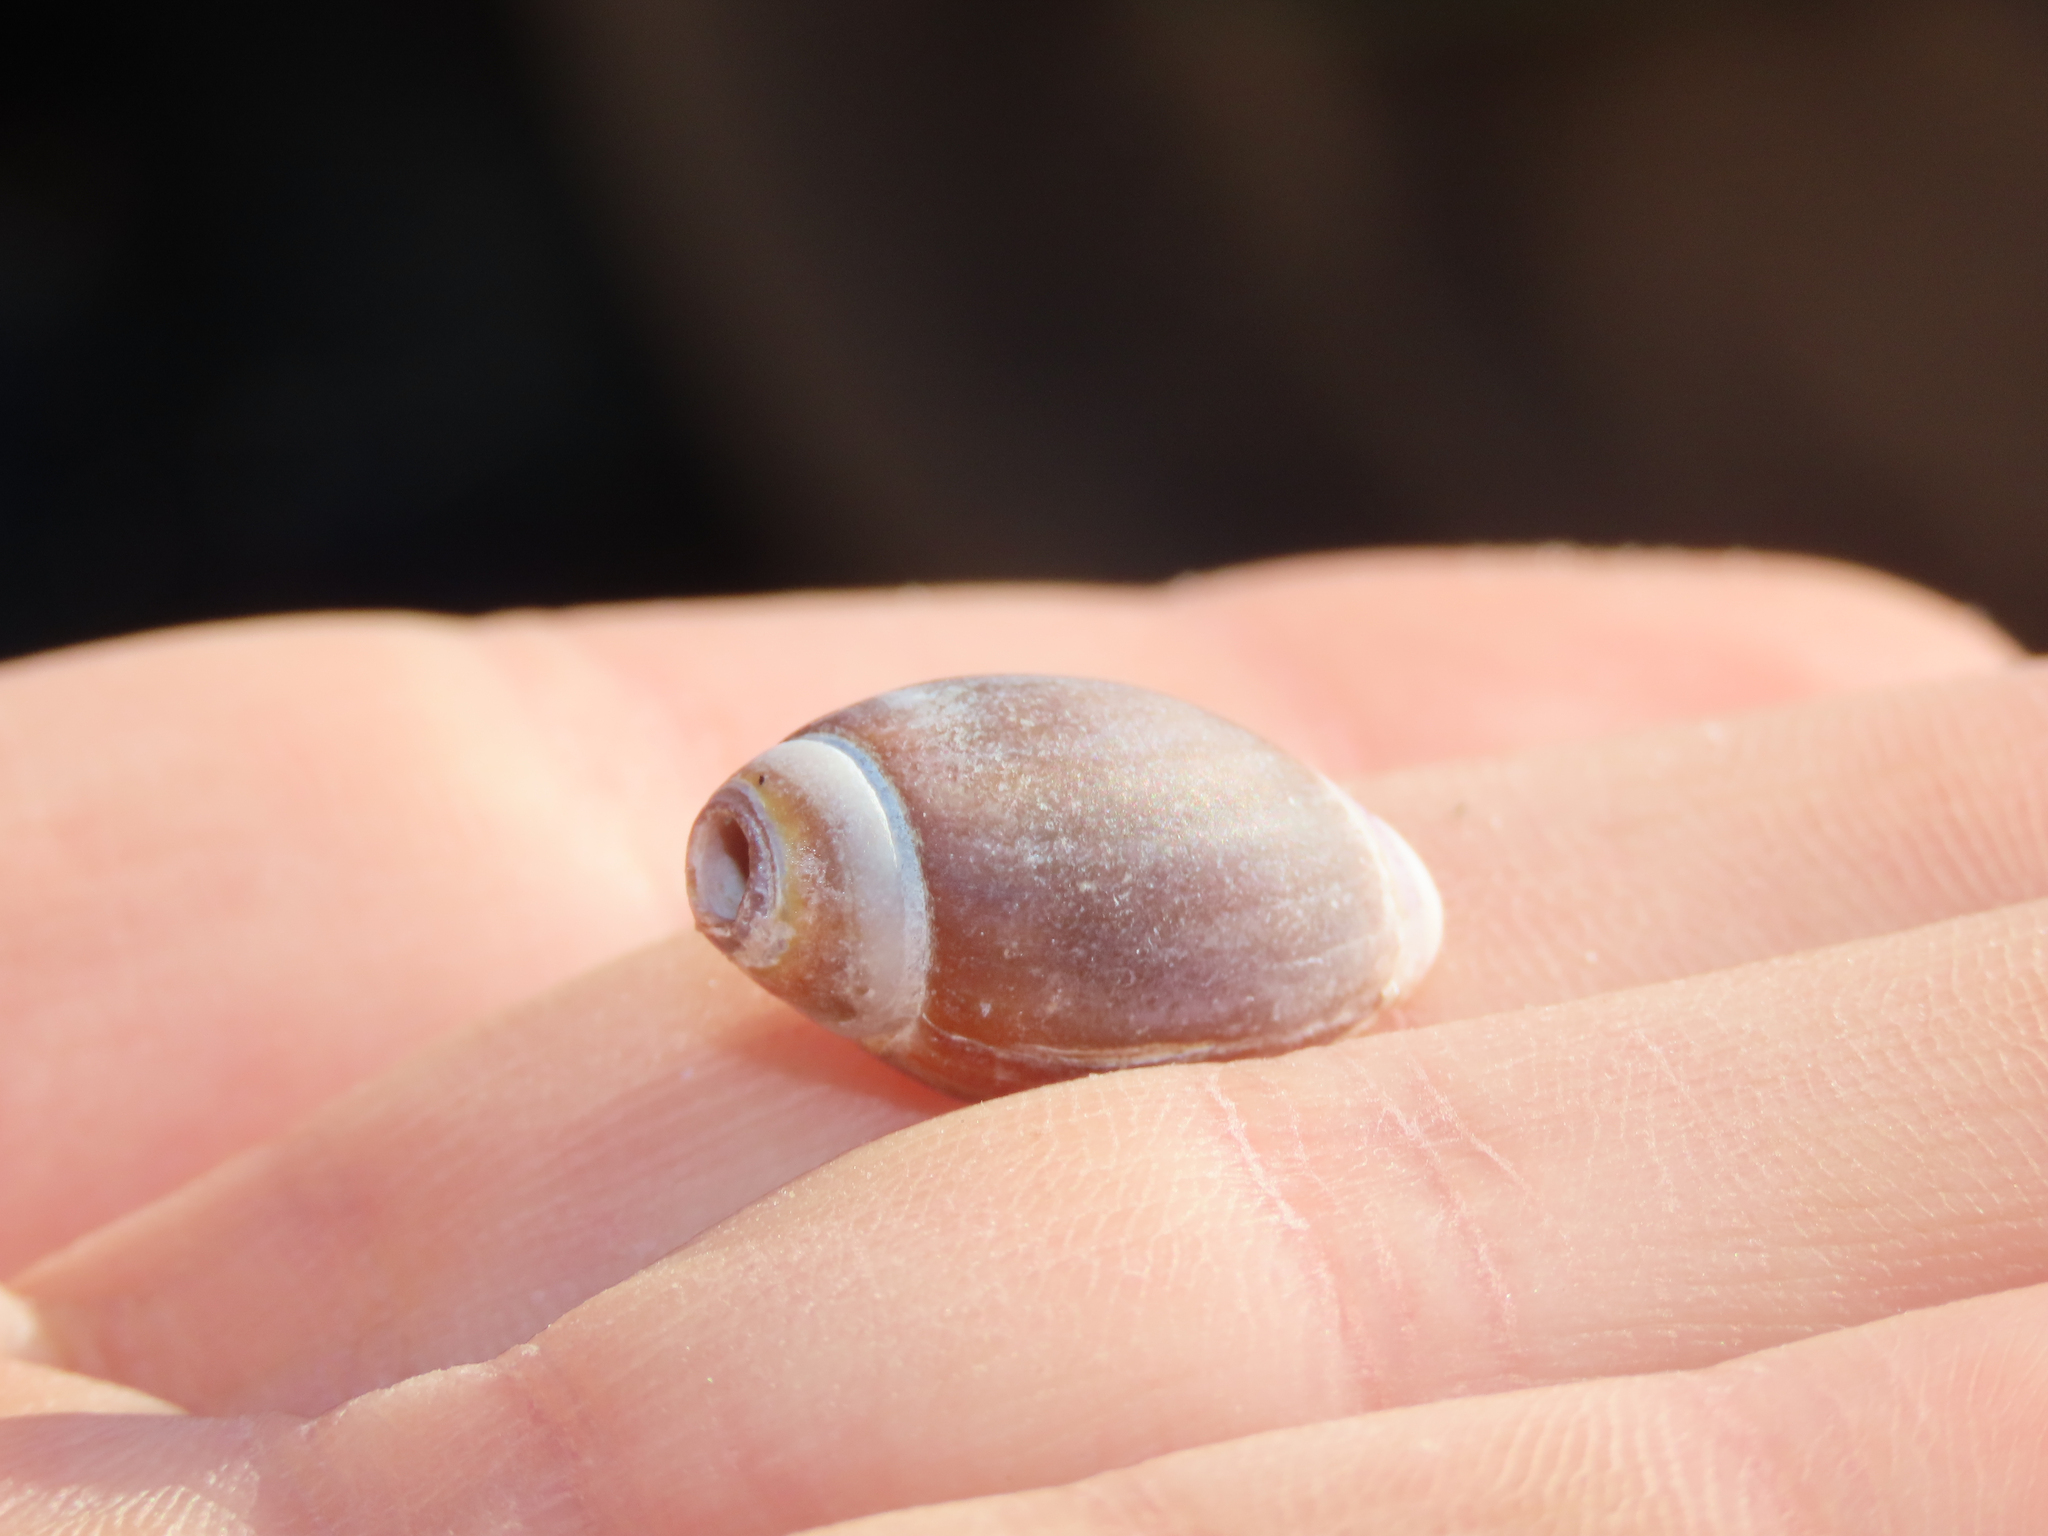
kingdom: Animalia
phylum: Mollusca
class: Gastropoda
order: Neogastropoda
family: Olividae
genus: Callianax
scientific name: Callianax biplicata
